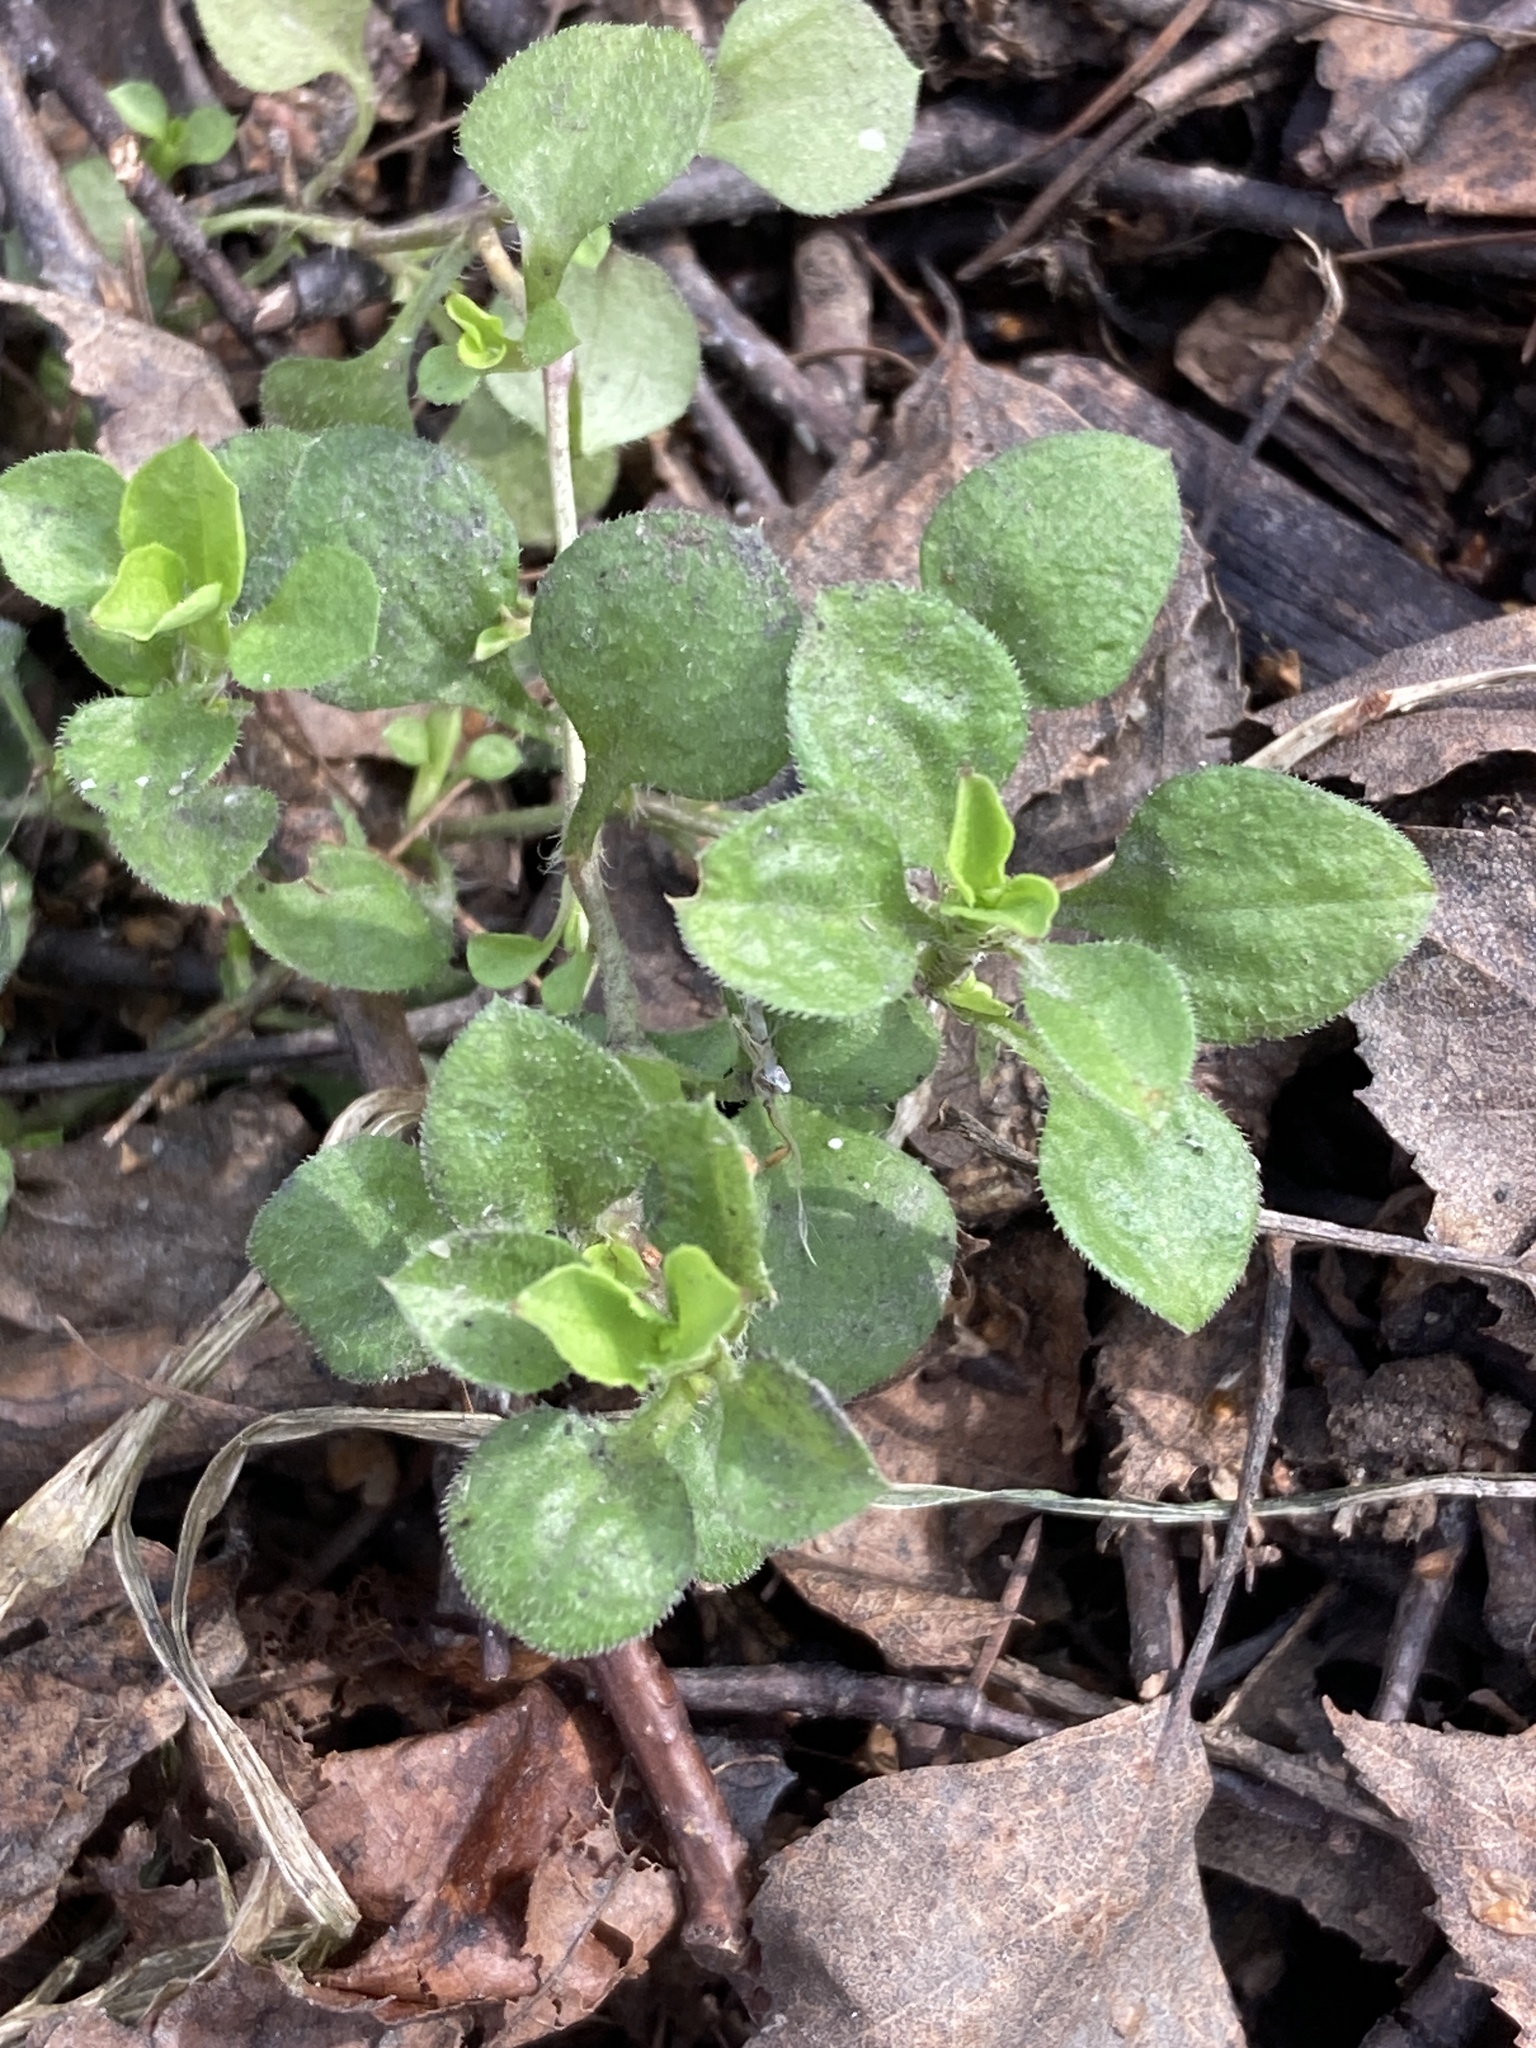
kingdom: Plantae
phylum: Tracheophyta
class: Magnoliopsida
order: Caryophyllales
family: Caryophyllaceae
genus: Moehringia
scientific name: Moehringia trinervia
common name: Three-nerved sandwort
